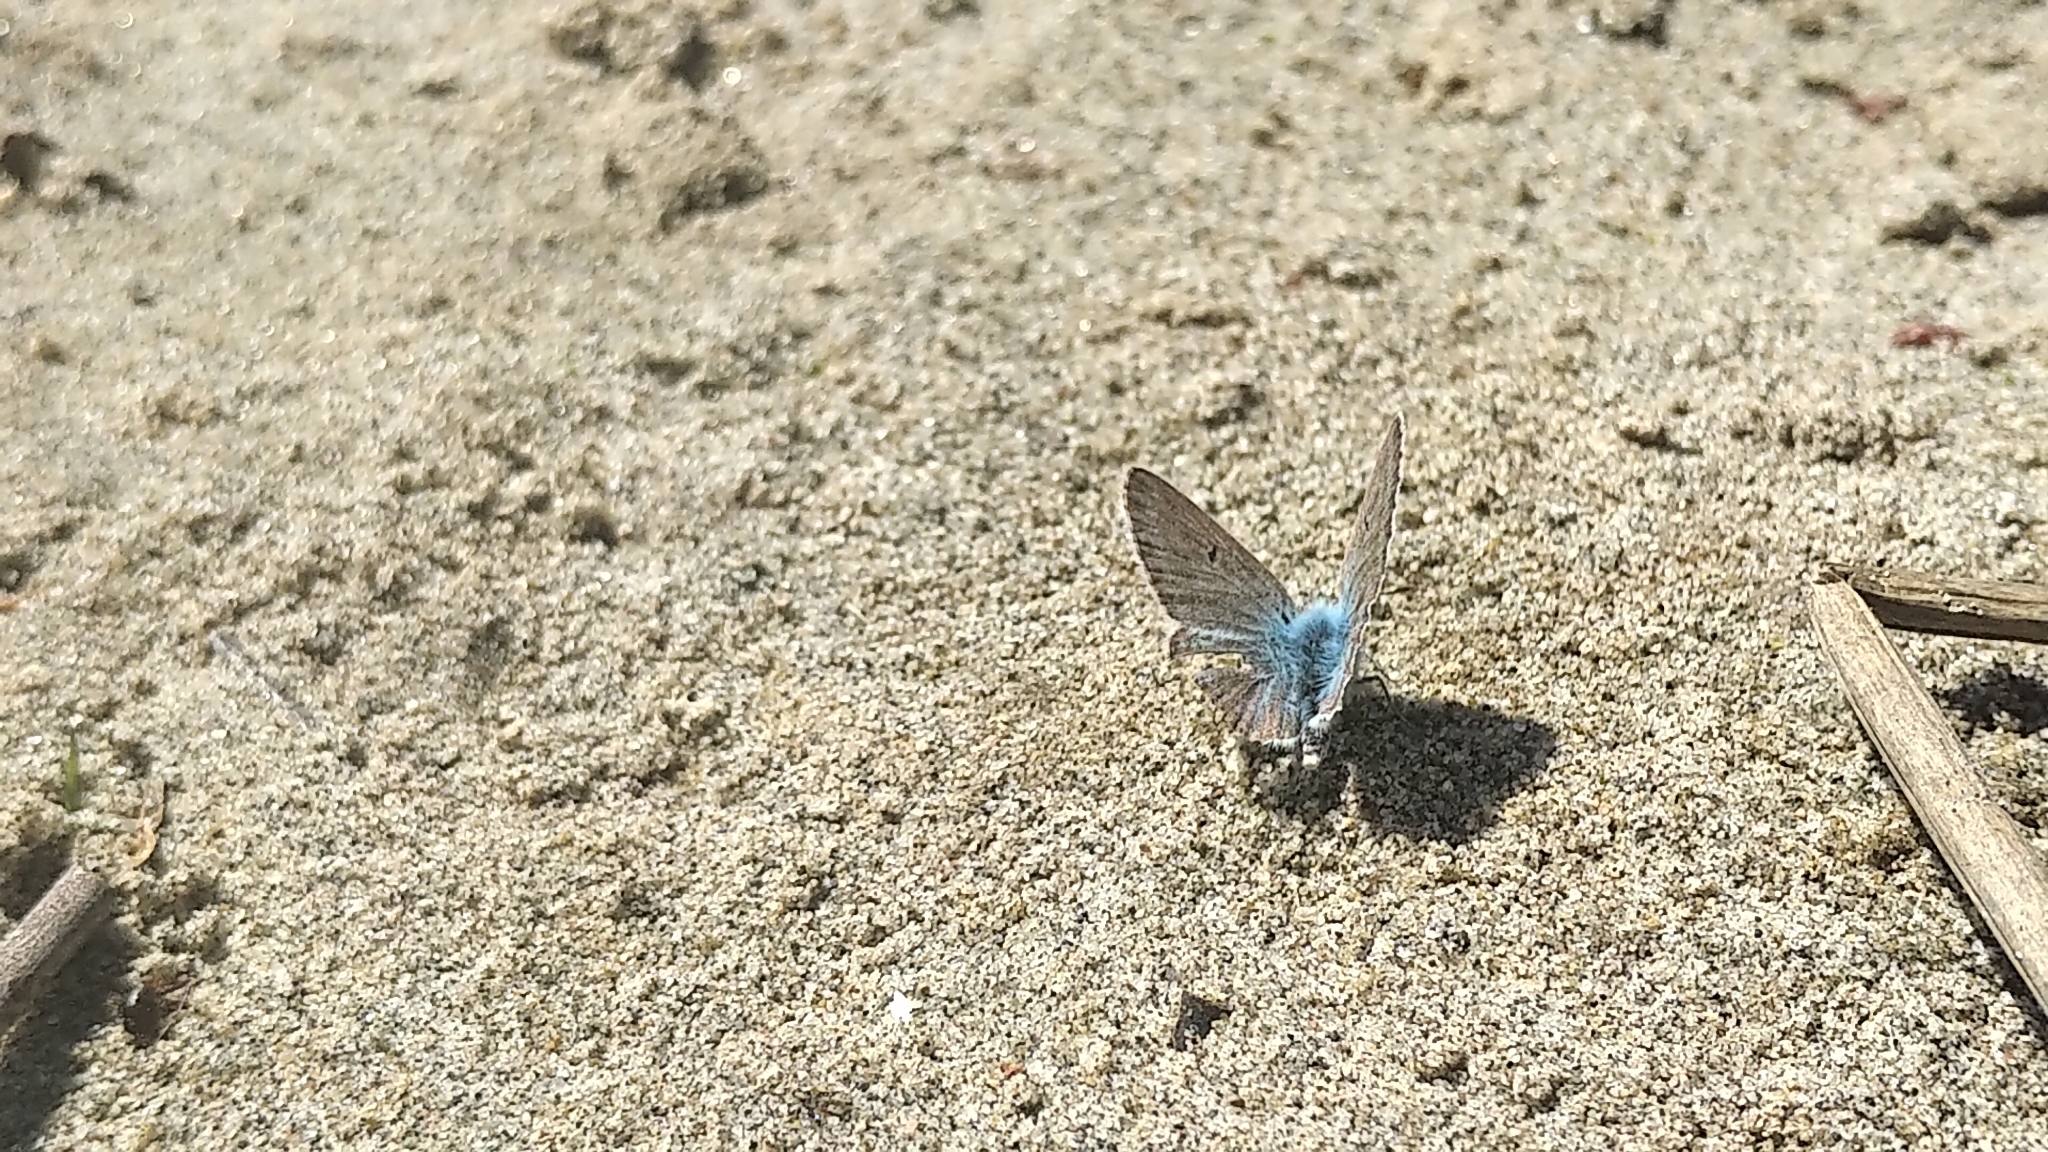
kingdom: Animalia
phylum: Arthropoda
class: Insecta
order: Lepidoptera
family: Lycaenidae
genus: Agriades
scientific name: Agriades glandon
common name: Glandon blue
